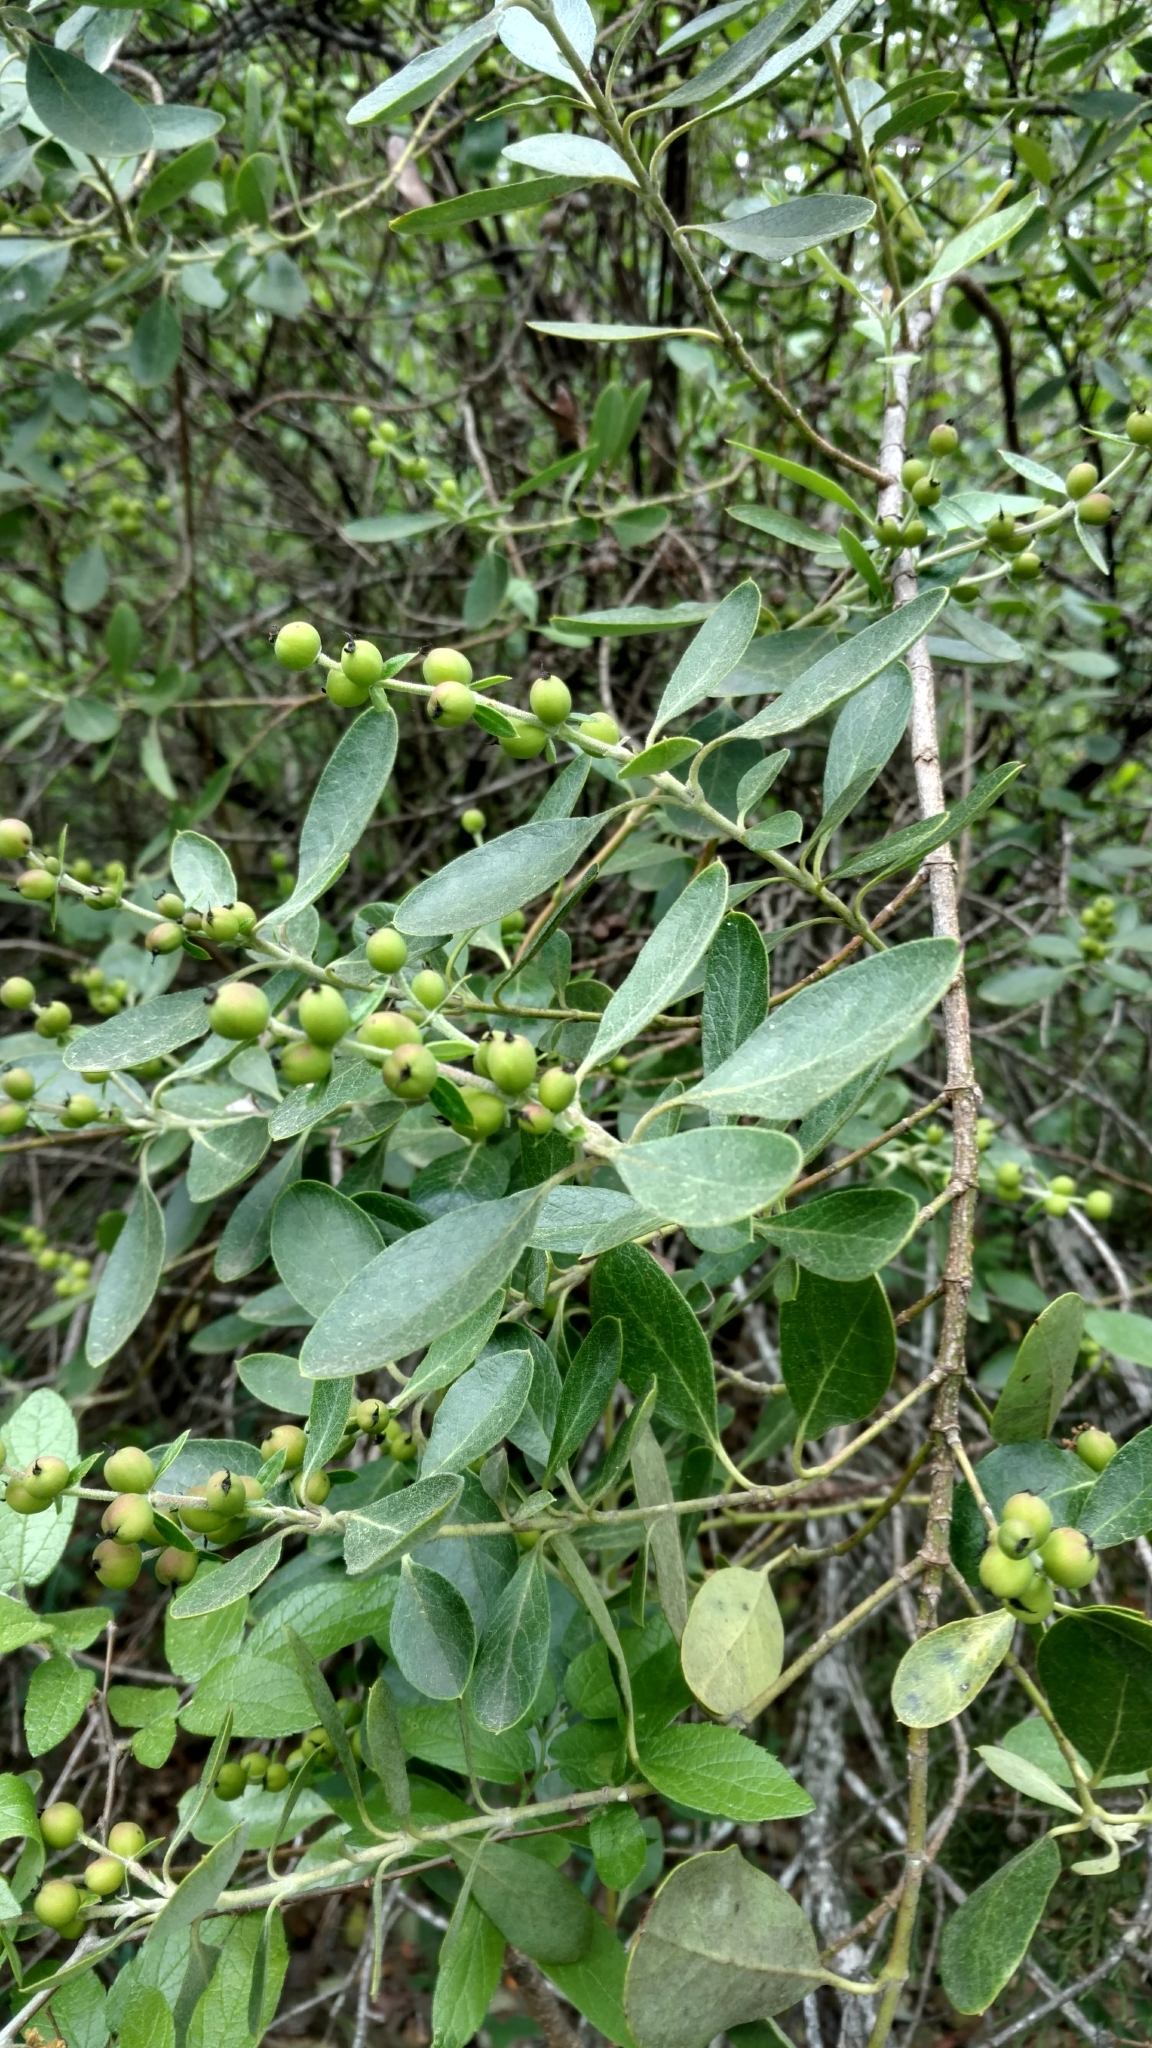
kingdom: Plantae
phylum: Tracheophyta
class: Magnoliopsida
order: Garryales
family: Garryaceae
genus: Garrya
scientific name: Garrya lindheimeri
